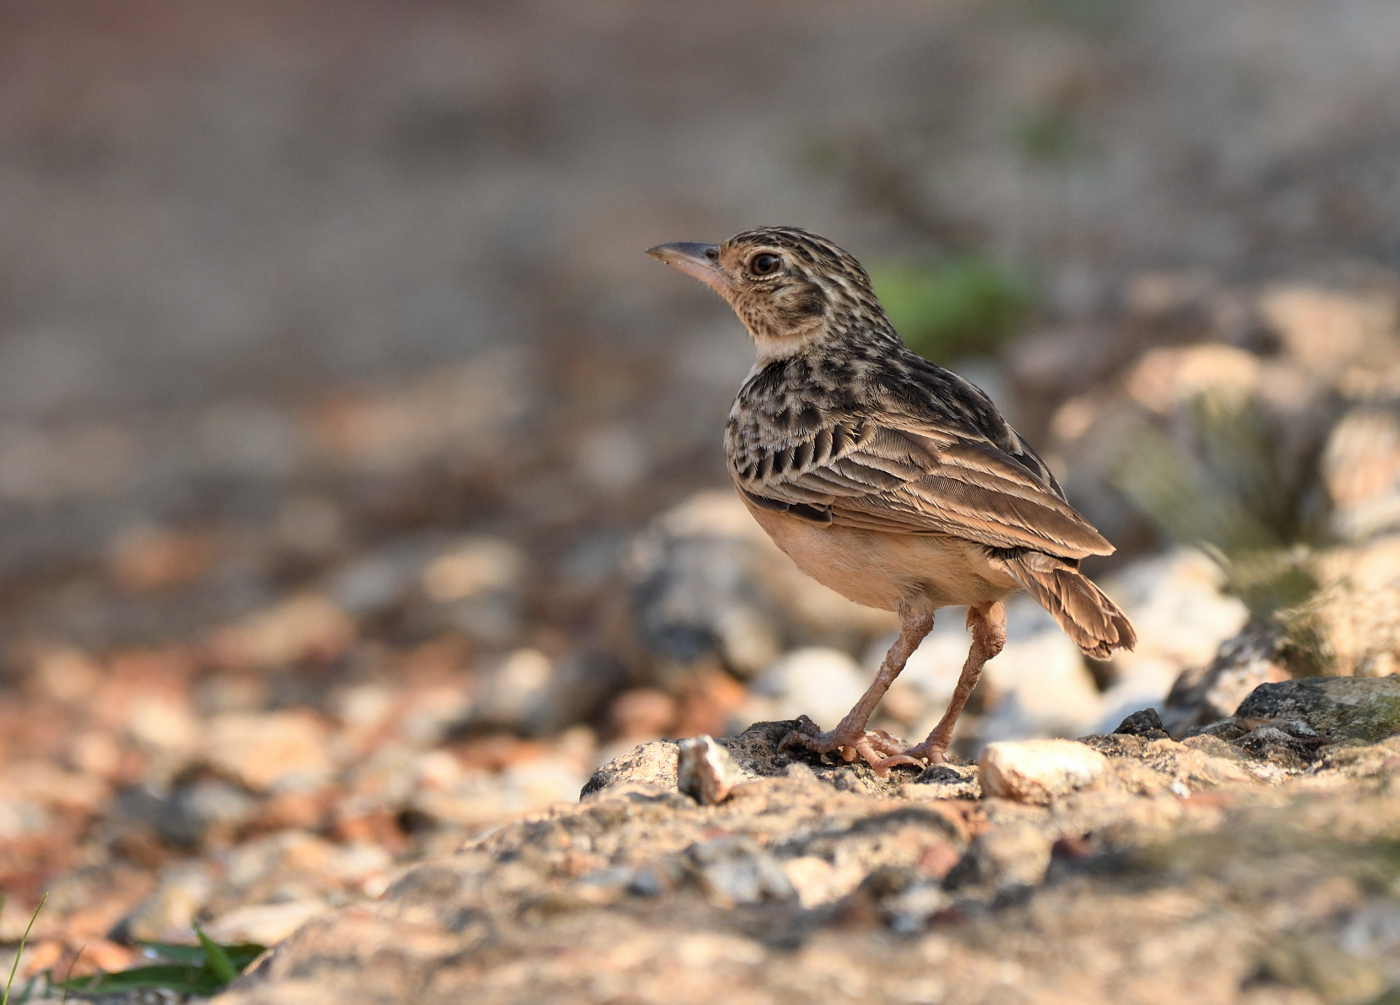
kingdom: Animalia
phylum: Chordata
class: Aves
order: Passeriformes
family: Alaudidae
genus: Mirafra
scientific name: Mirafra affinis
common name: Jerdon's bushlark
